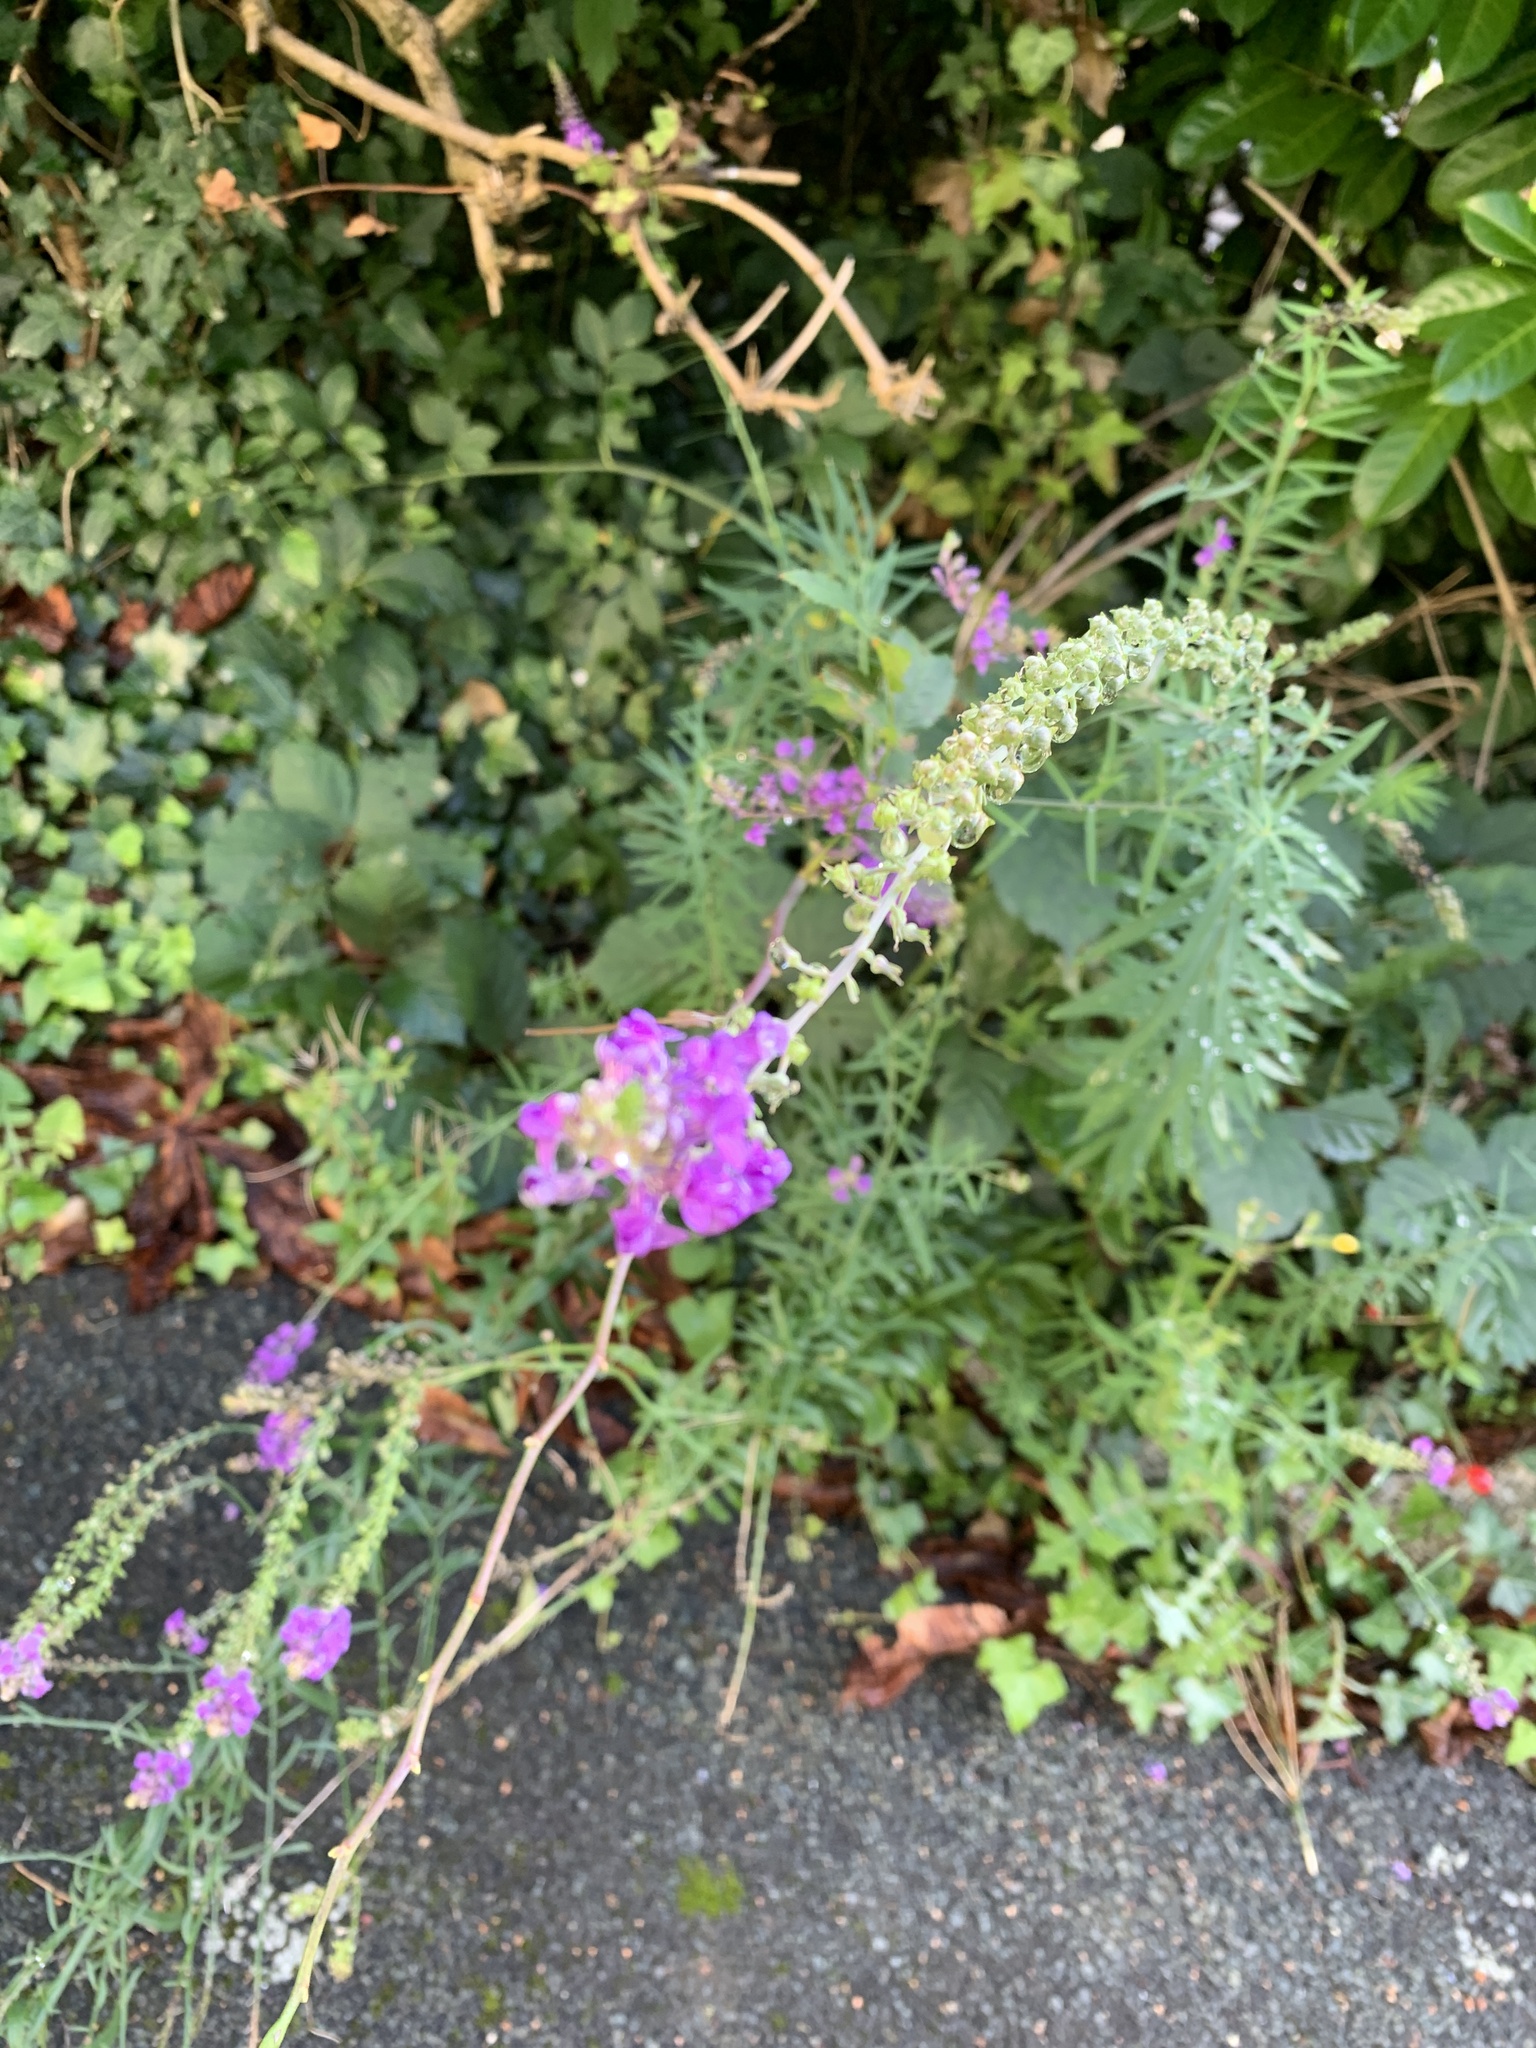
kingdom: Plantae
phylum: Tracheophyta
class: Magnoliopsida
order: Lamiales
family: Plantaginaceae
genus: Linaria
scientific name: Linaria purpurea
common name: Purple toadflax
